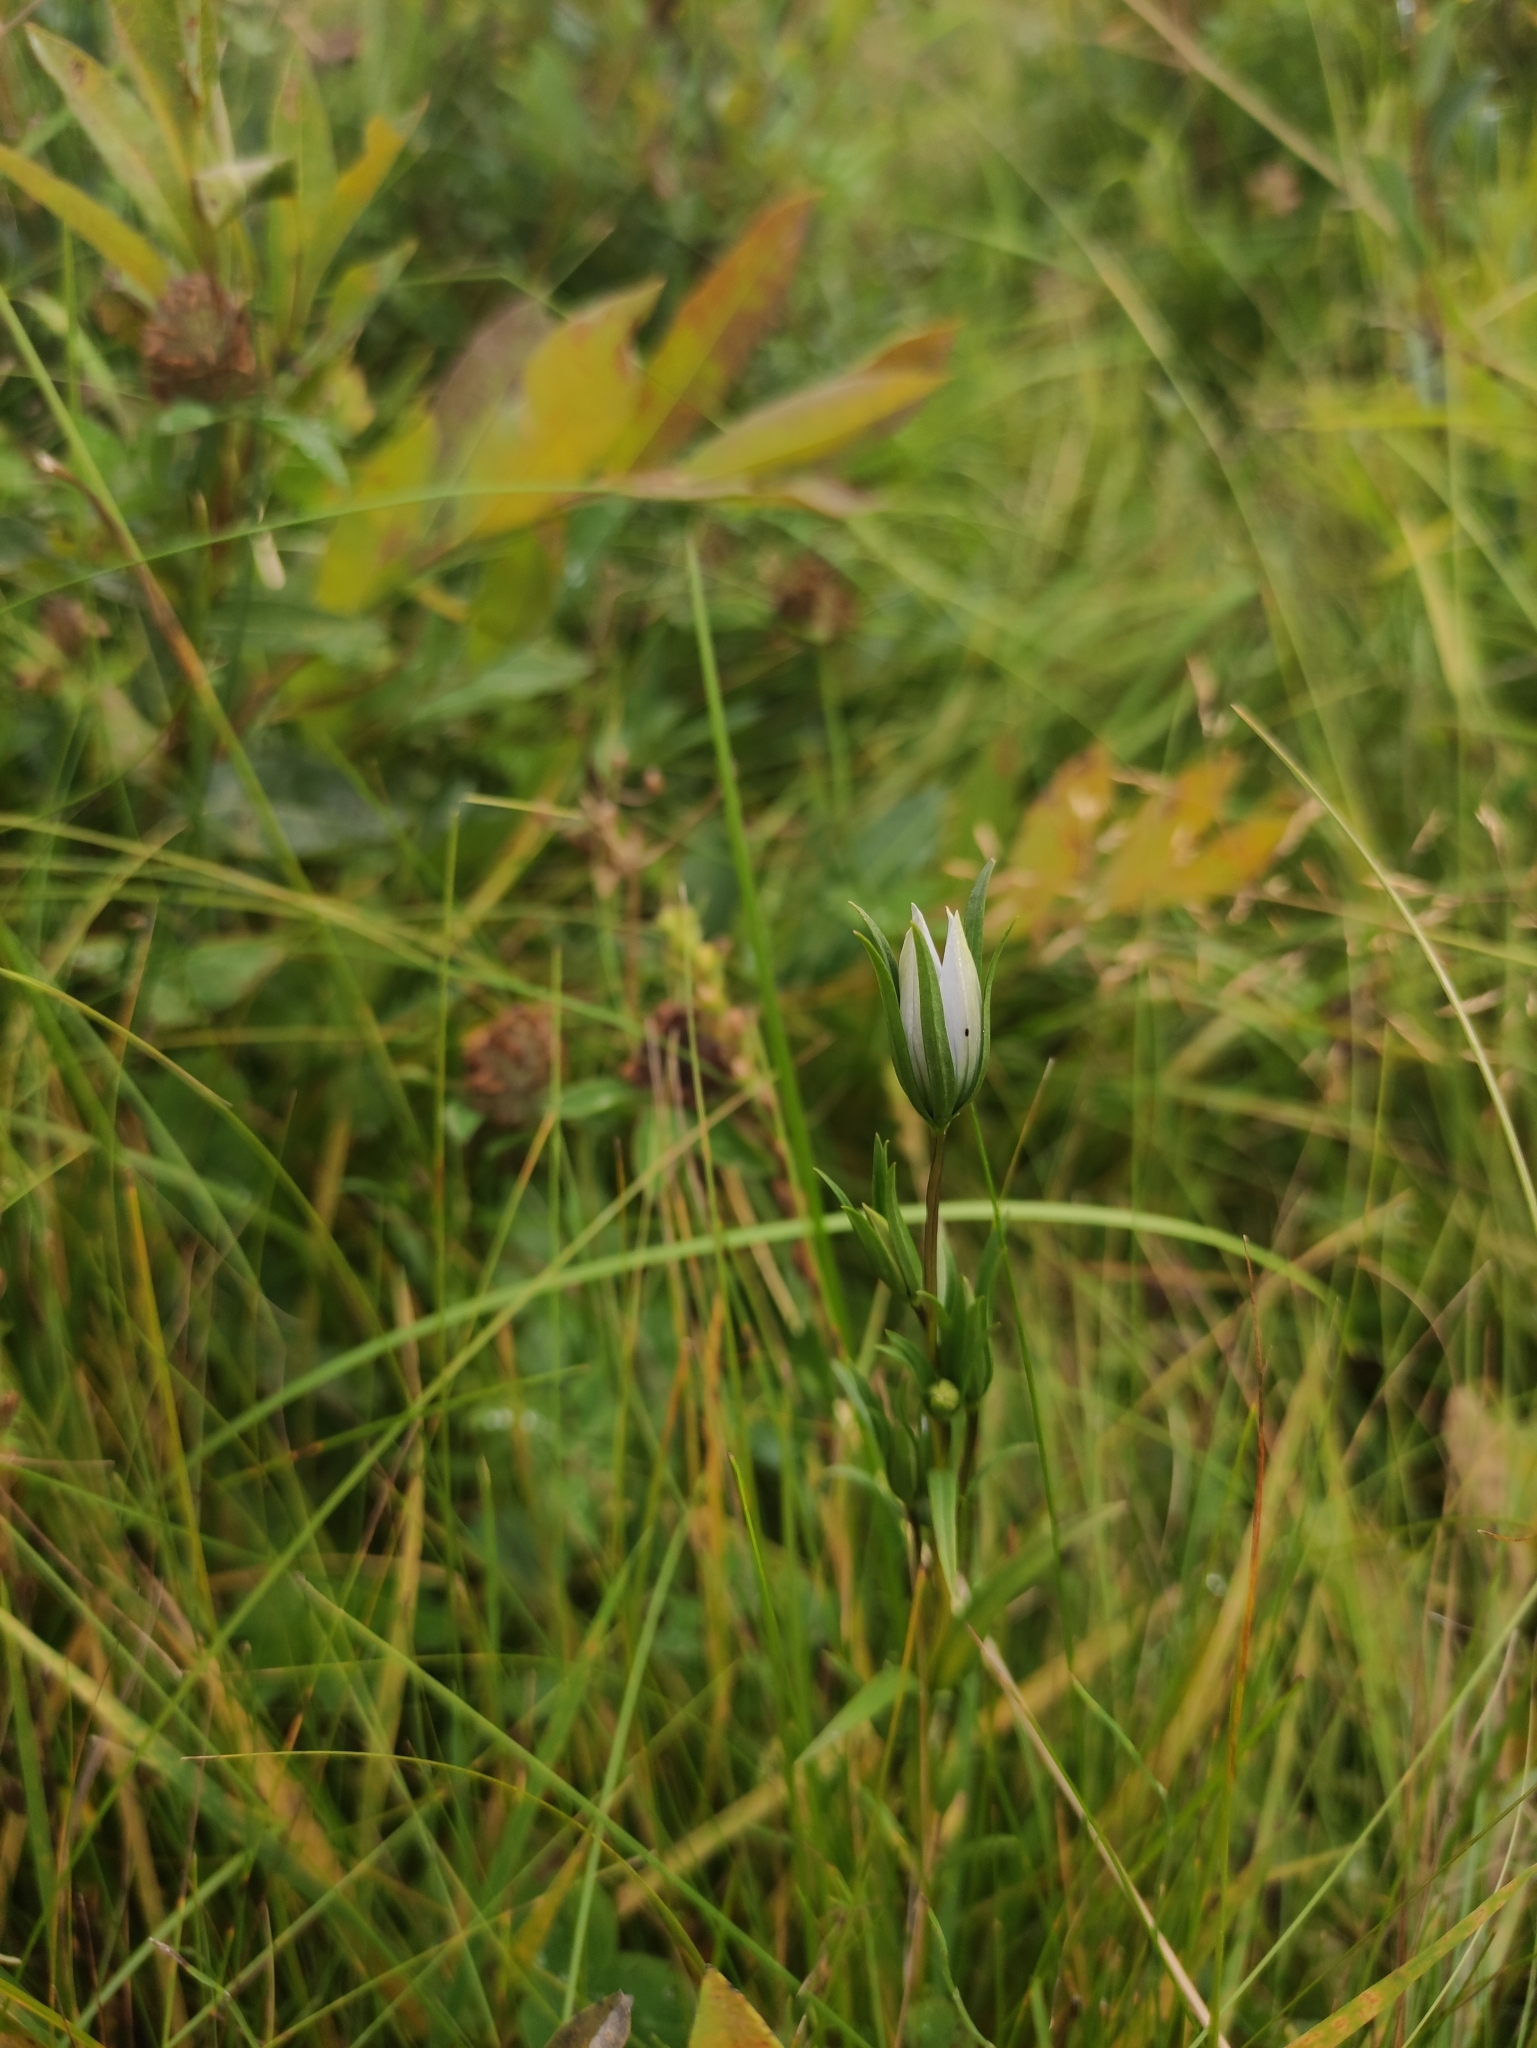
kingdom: Plantae
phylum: Tracheophyta
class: Magnoliopsida
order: Gentianales
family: Gentianaceae
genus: Lomatogonium
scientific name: Lomatogonium rotatum
